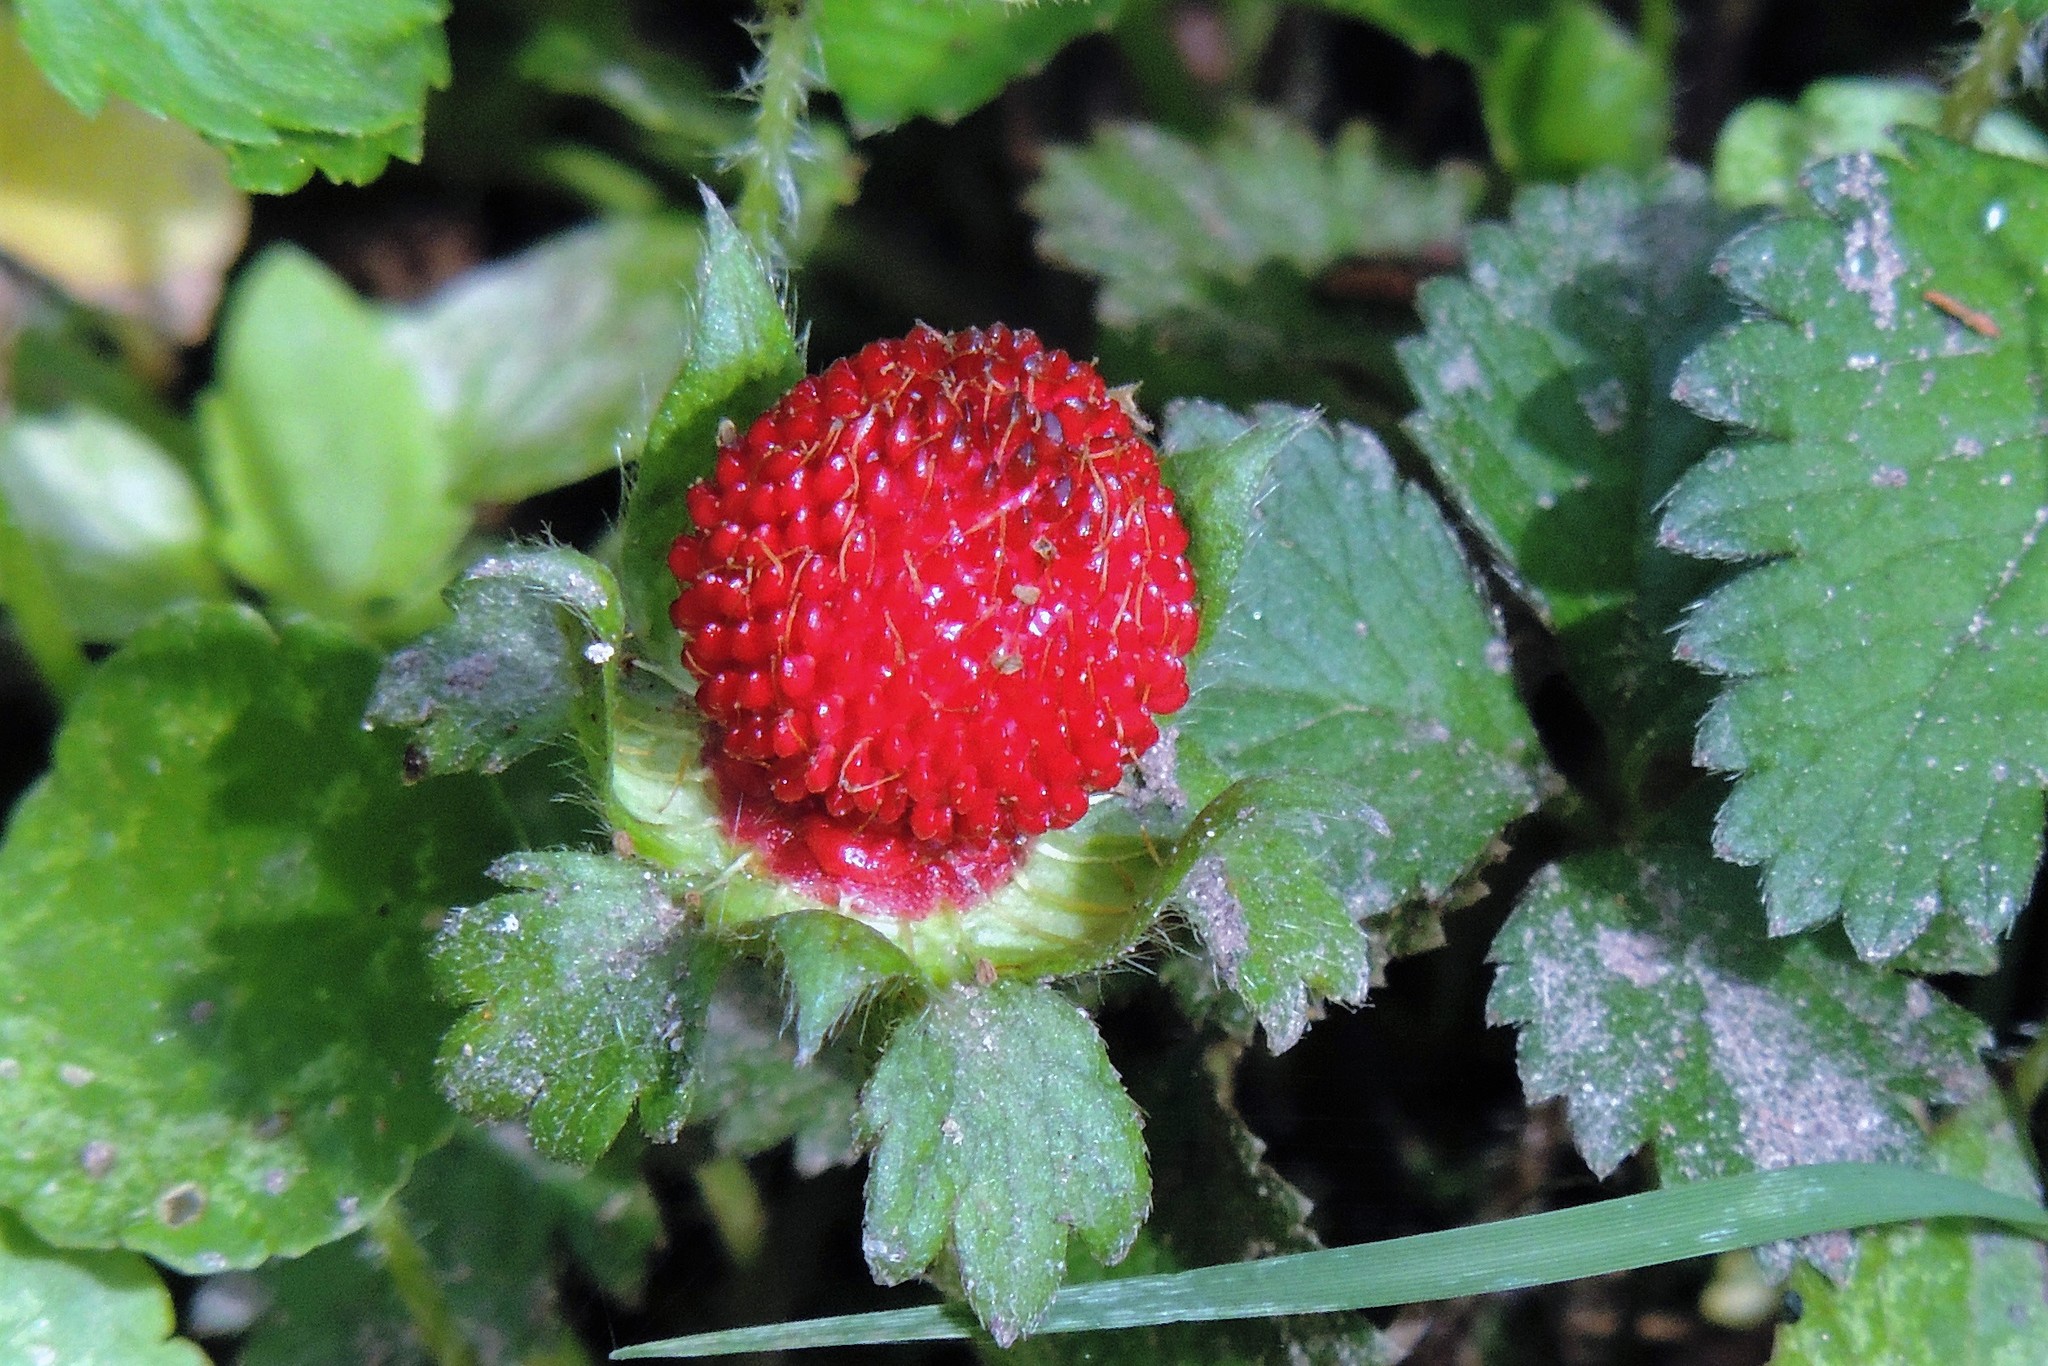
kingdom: Plantae
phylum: Tracheophyta
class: Magnoliopsida
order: Rosales
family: Rosaceae
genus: Potentilla
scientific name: Potentilla indica
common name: Yellow-flowered strawberry
